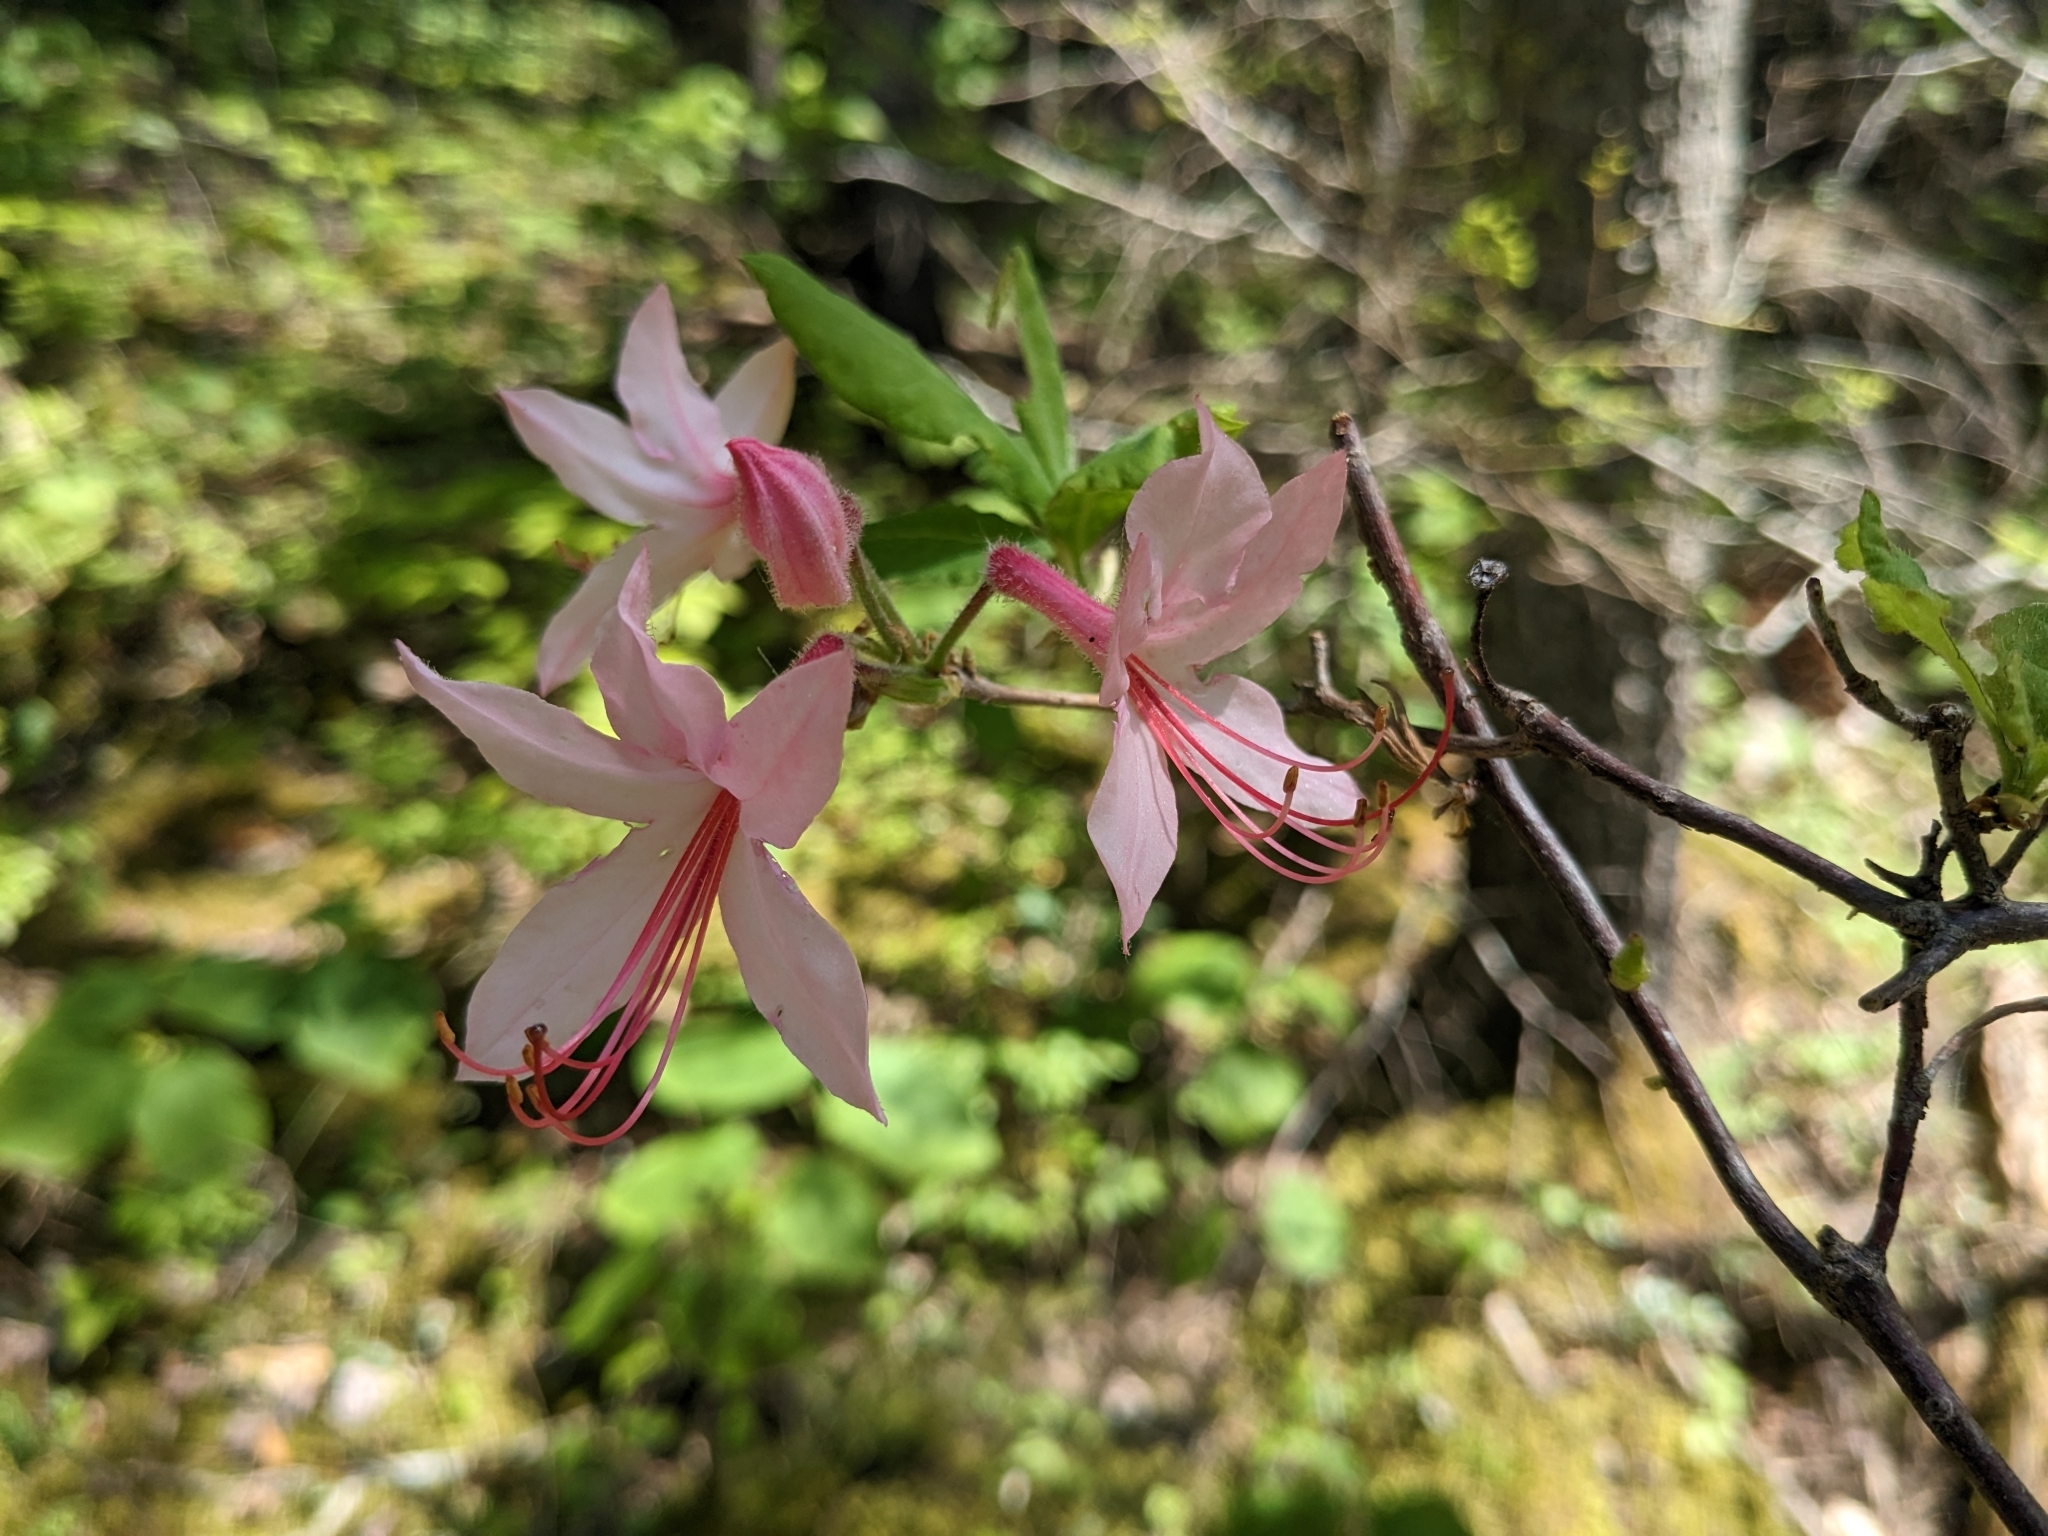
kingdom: Plantae
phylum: Tracheophyta
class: Magnoliopsida
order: Ericales
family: Ericaceae
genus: Rhododendron
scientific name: Rhododendron roseum
